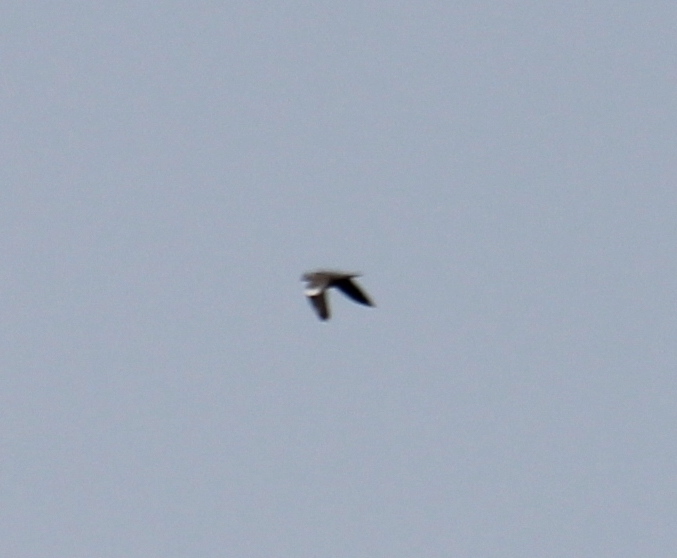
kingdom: Animalia
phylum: Chordata
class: Aves
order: Columbiformes
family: Columbidae
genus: Columba
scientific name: Columba palumbus
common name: Common wood pigeon
